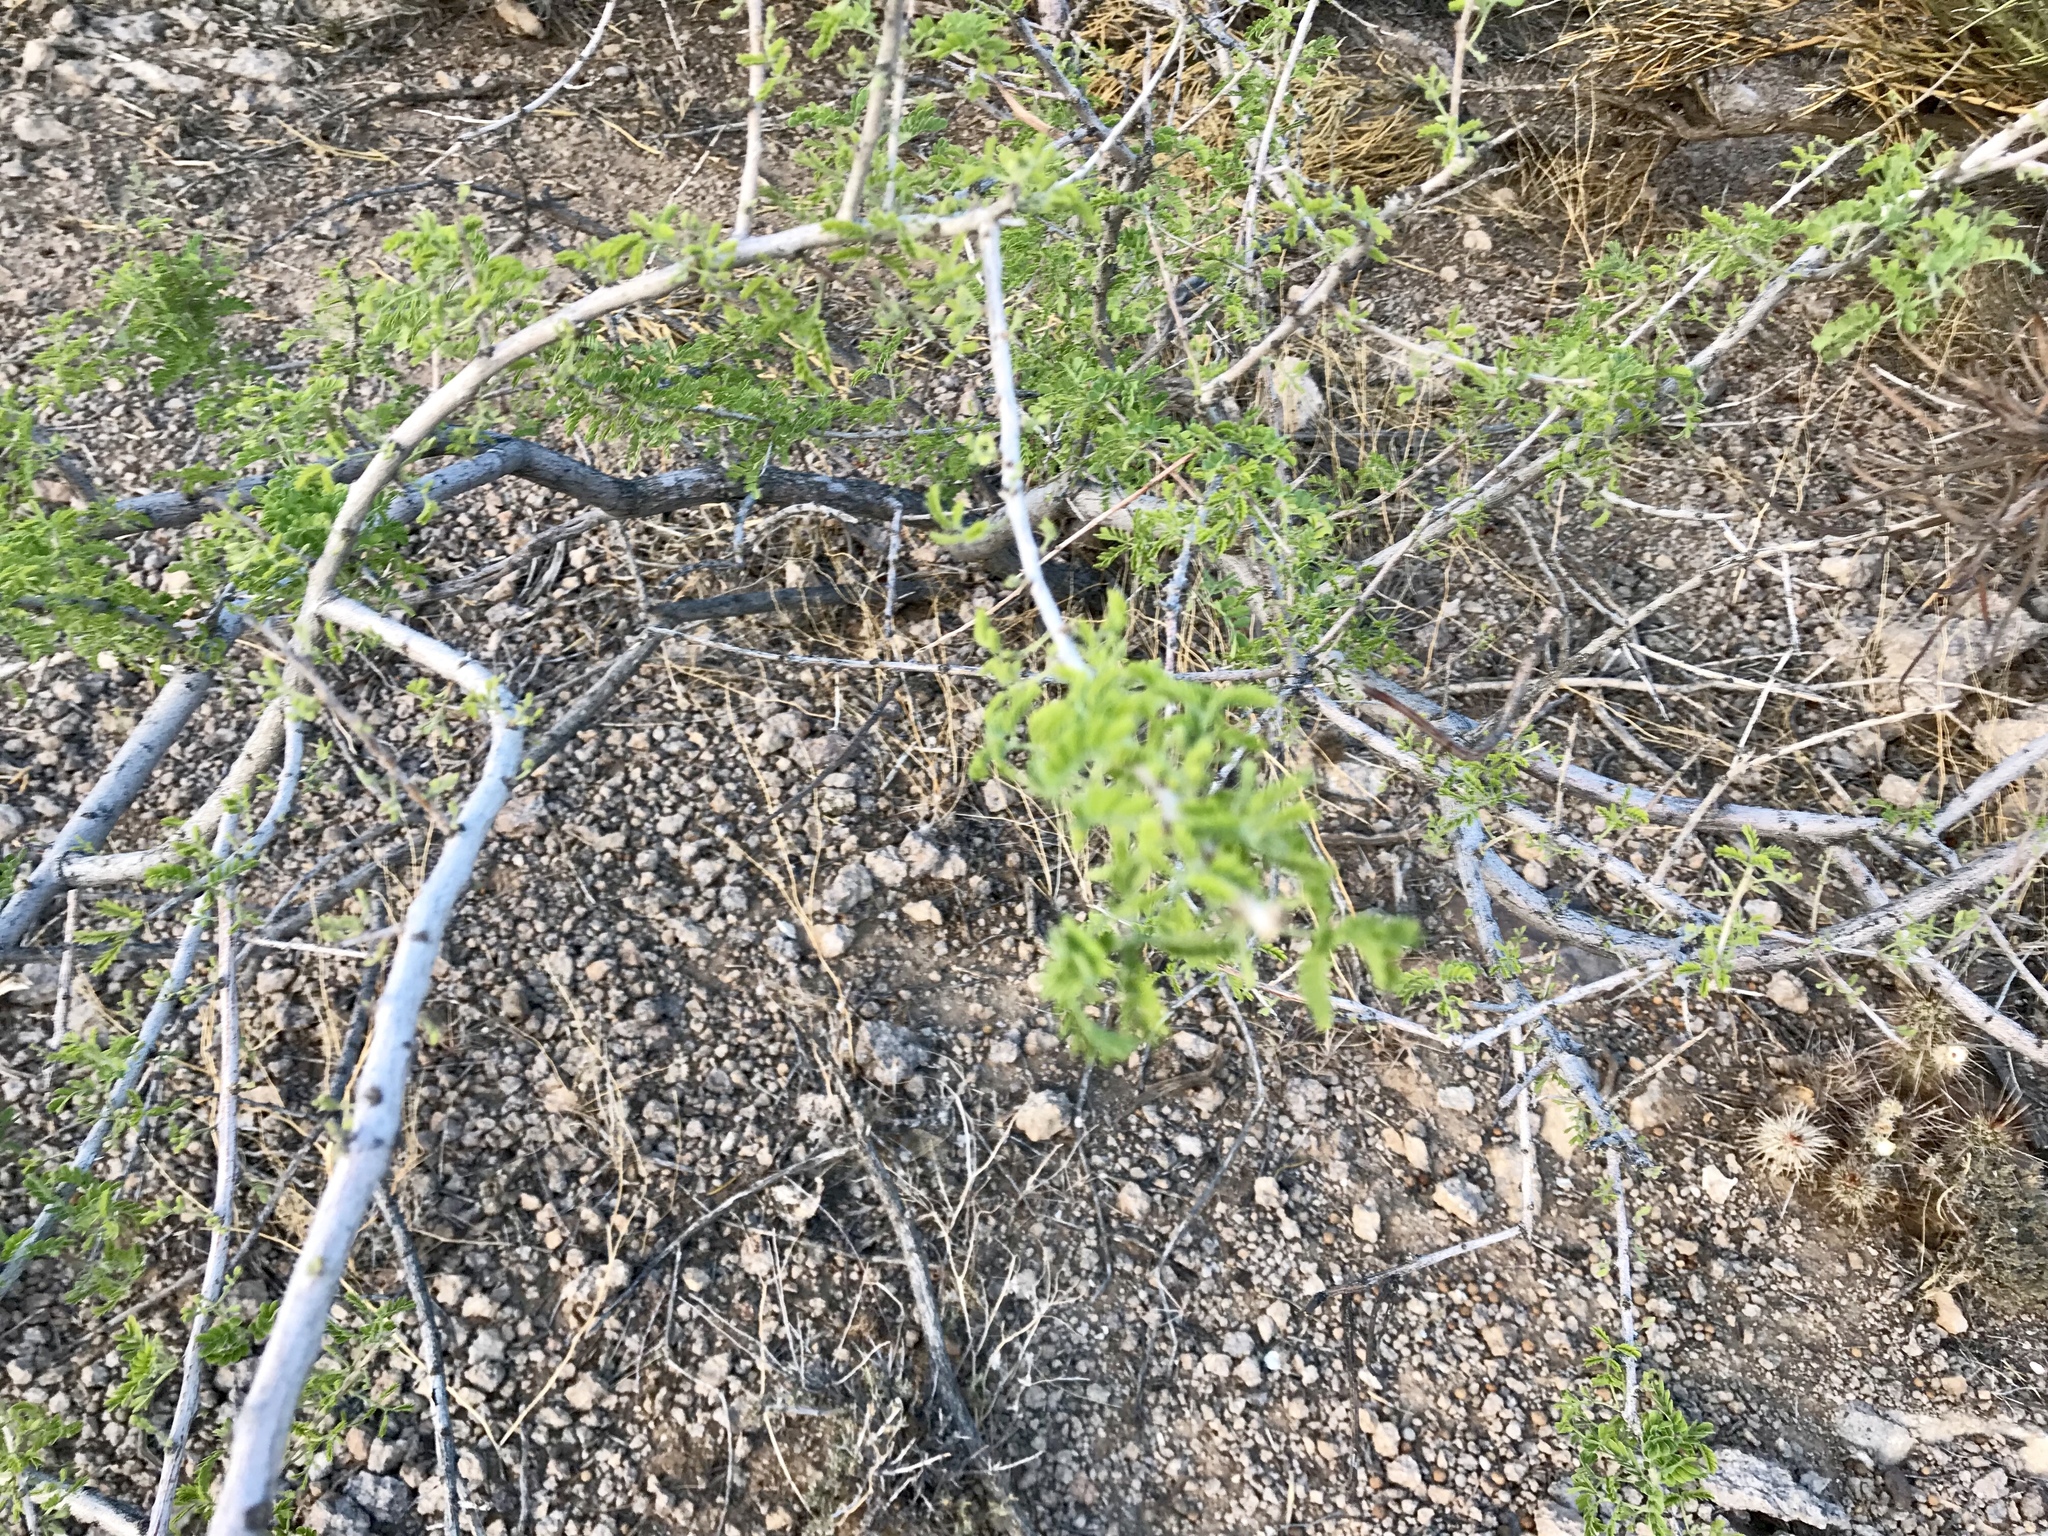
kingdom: Plantae
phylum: Tracheophyta
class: Magnoliopsida
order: Fabales
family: Fabaceae
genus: Senegalia
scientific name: Senegalia greggii
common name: Texas-mimosa
